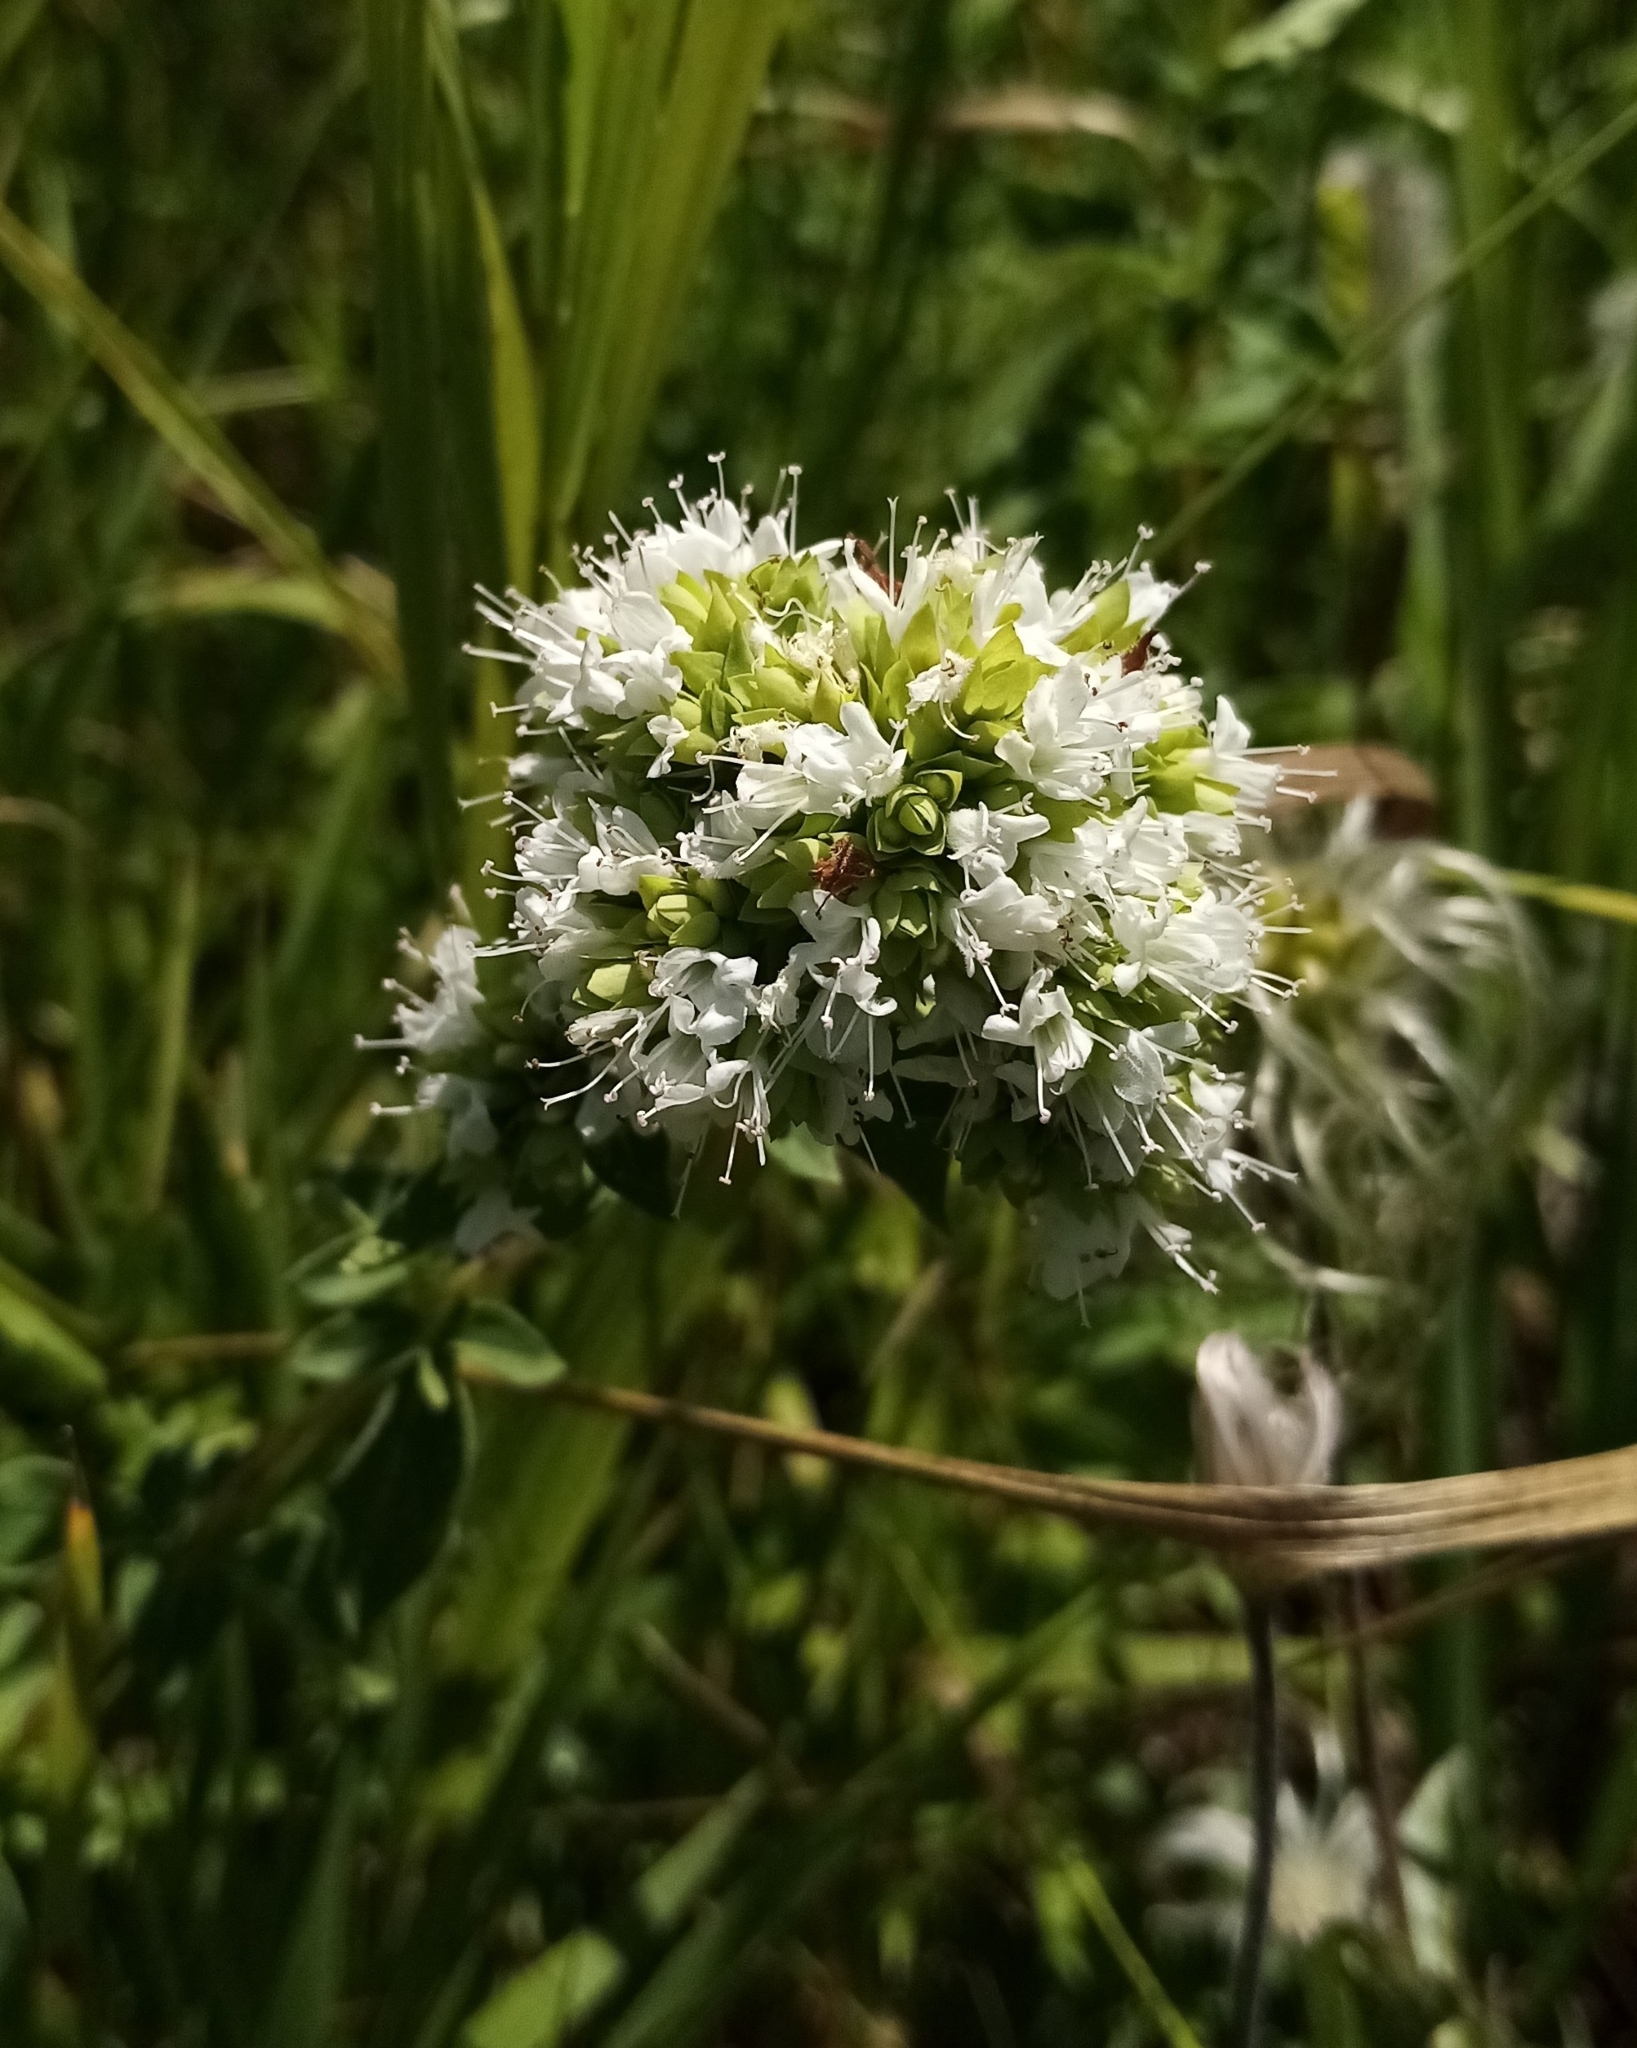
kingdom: Plantae
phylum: Tracheophyta
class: Magnoliopsida
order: Lamiales
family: Lamiaceae
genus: Origanum
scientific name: Origanum vulgare
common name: Wild marjoram
